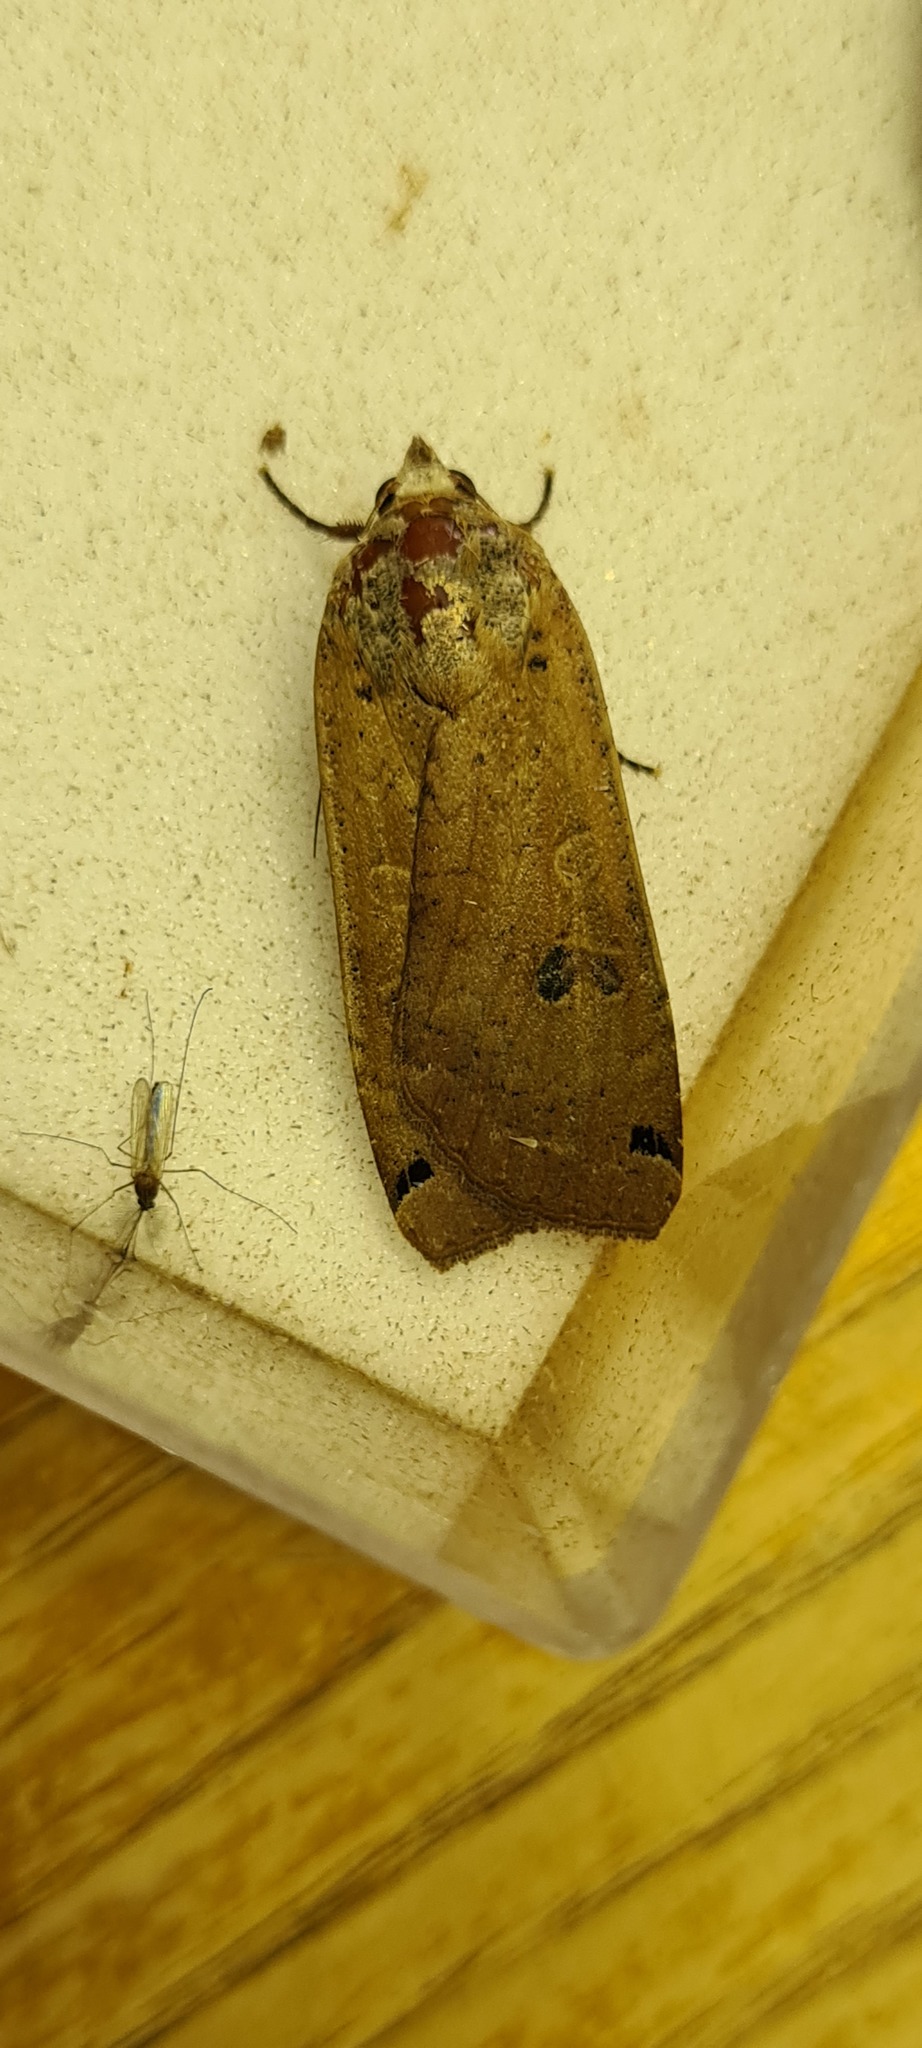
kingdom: Animalia
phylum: Arthropoda
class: Insecta
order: Lepidoptera
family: Noctuidae
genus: Noctua
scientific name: Noctua pronuba
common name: Large yellow underwing
